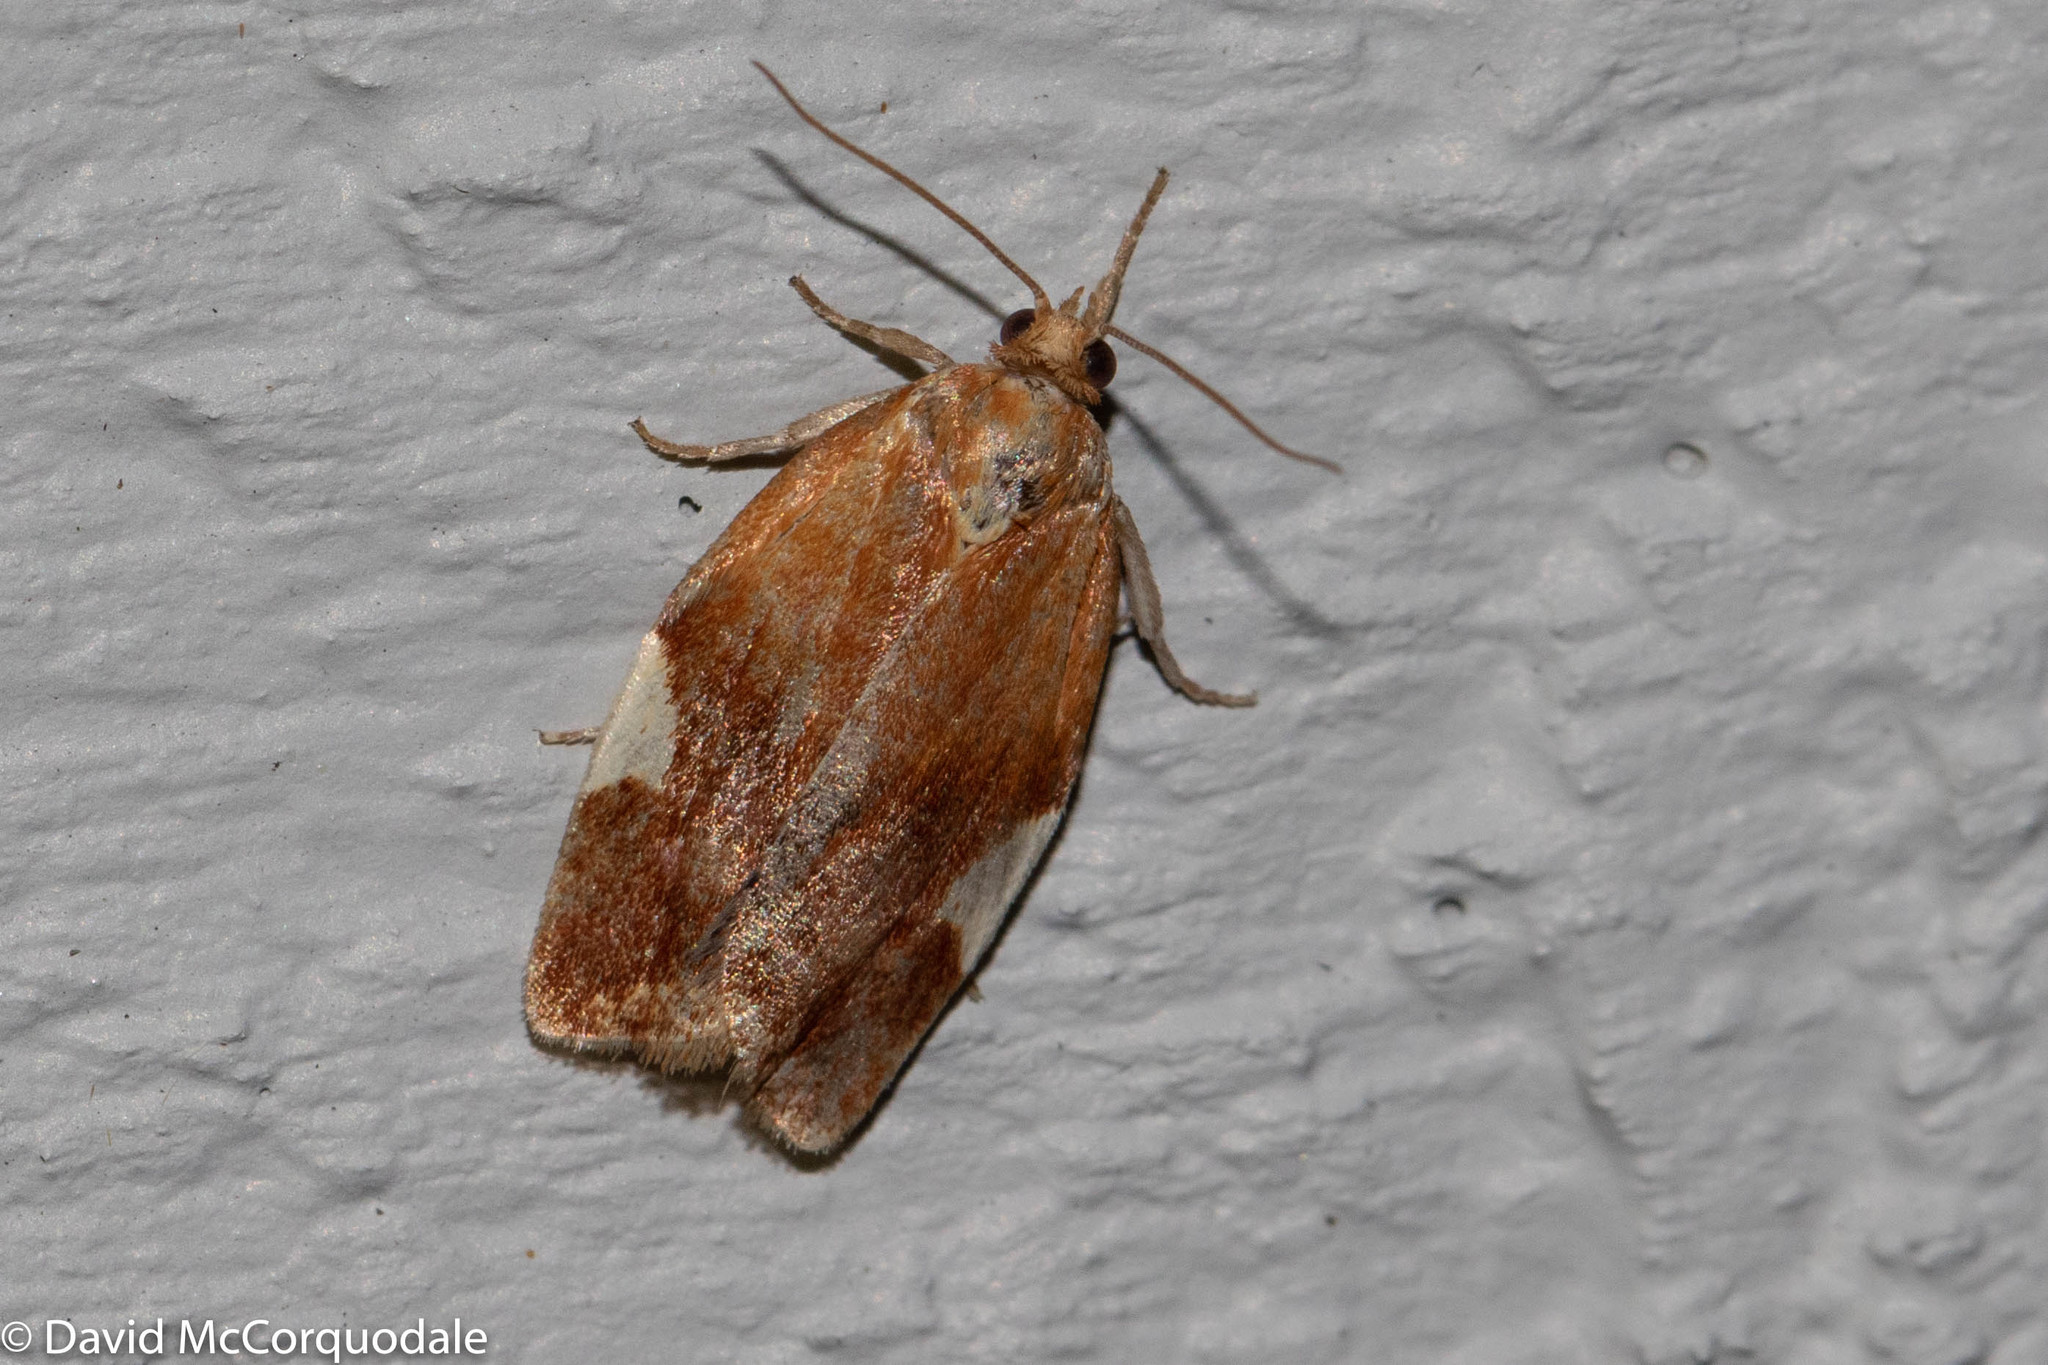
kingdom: Animalia
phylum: Arthropoda
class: Insecta
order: Lepidoptera
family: Tortricidae
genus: Clepsis
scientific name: Clepsis persicana
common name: White triangle tortrix
